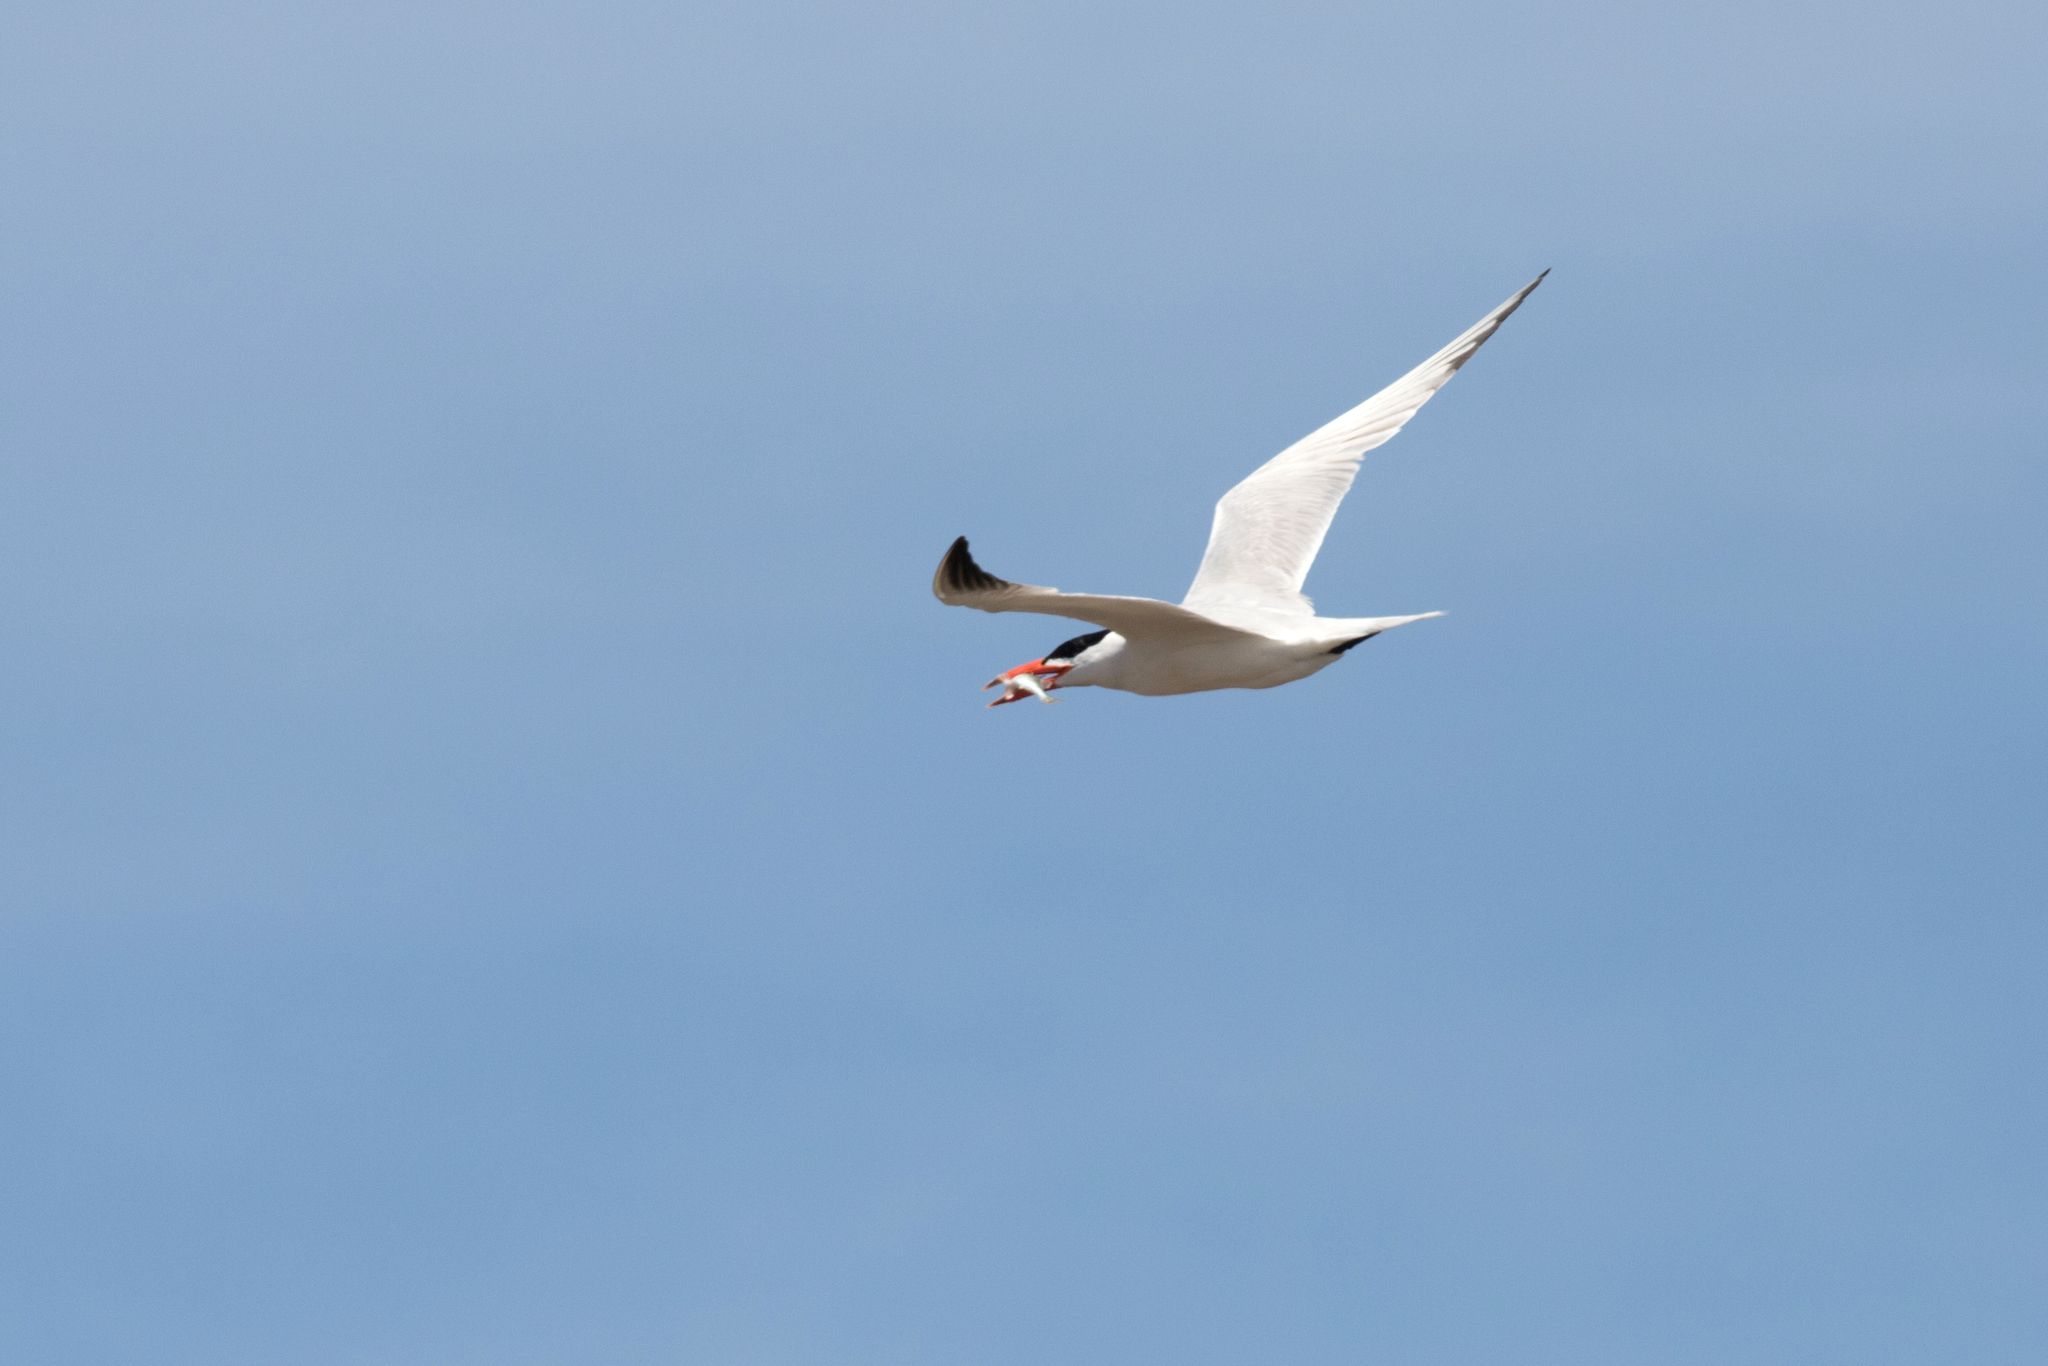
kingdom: Animalia
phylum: Chordata
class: Aves
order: Charadriiformes
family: Laridae
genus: Hydroprogne
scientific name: Hydroprogne caspia
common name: Caspian tern
